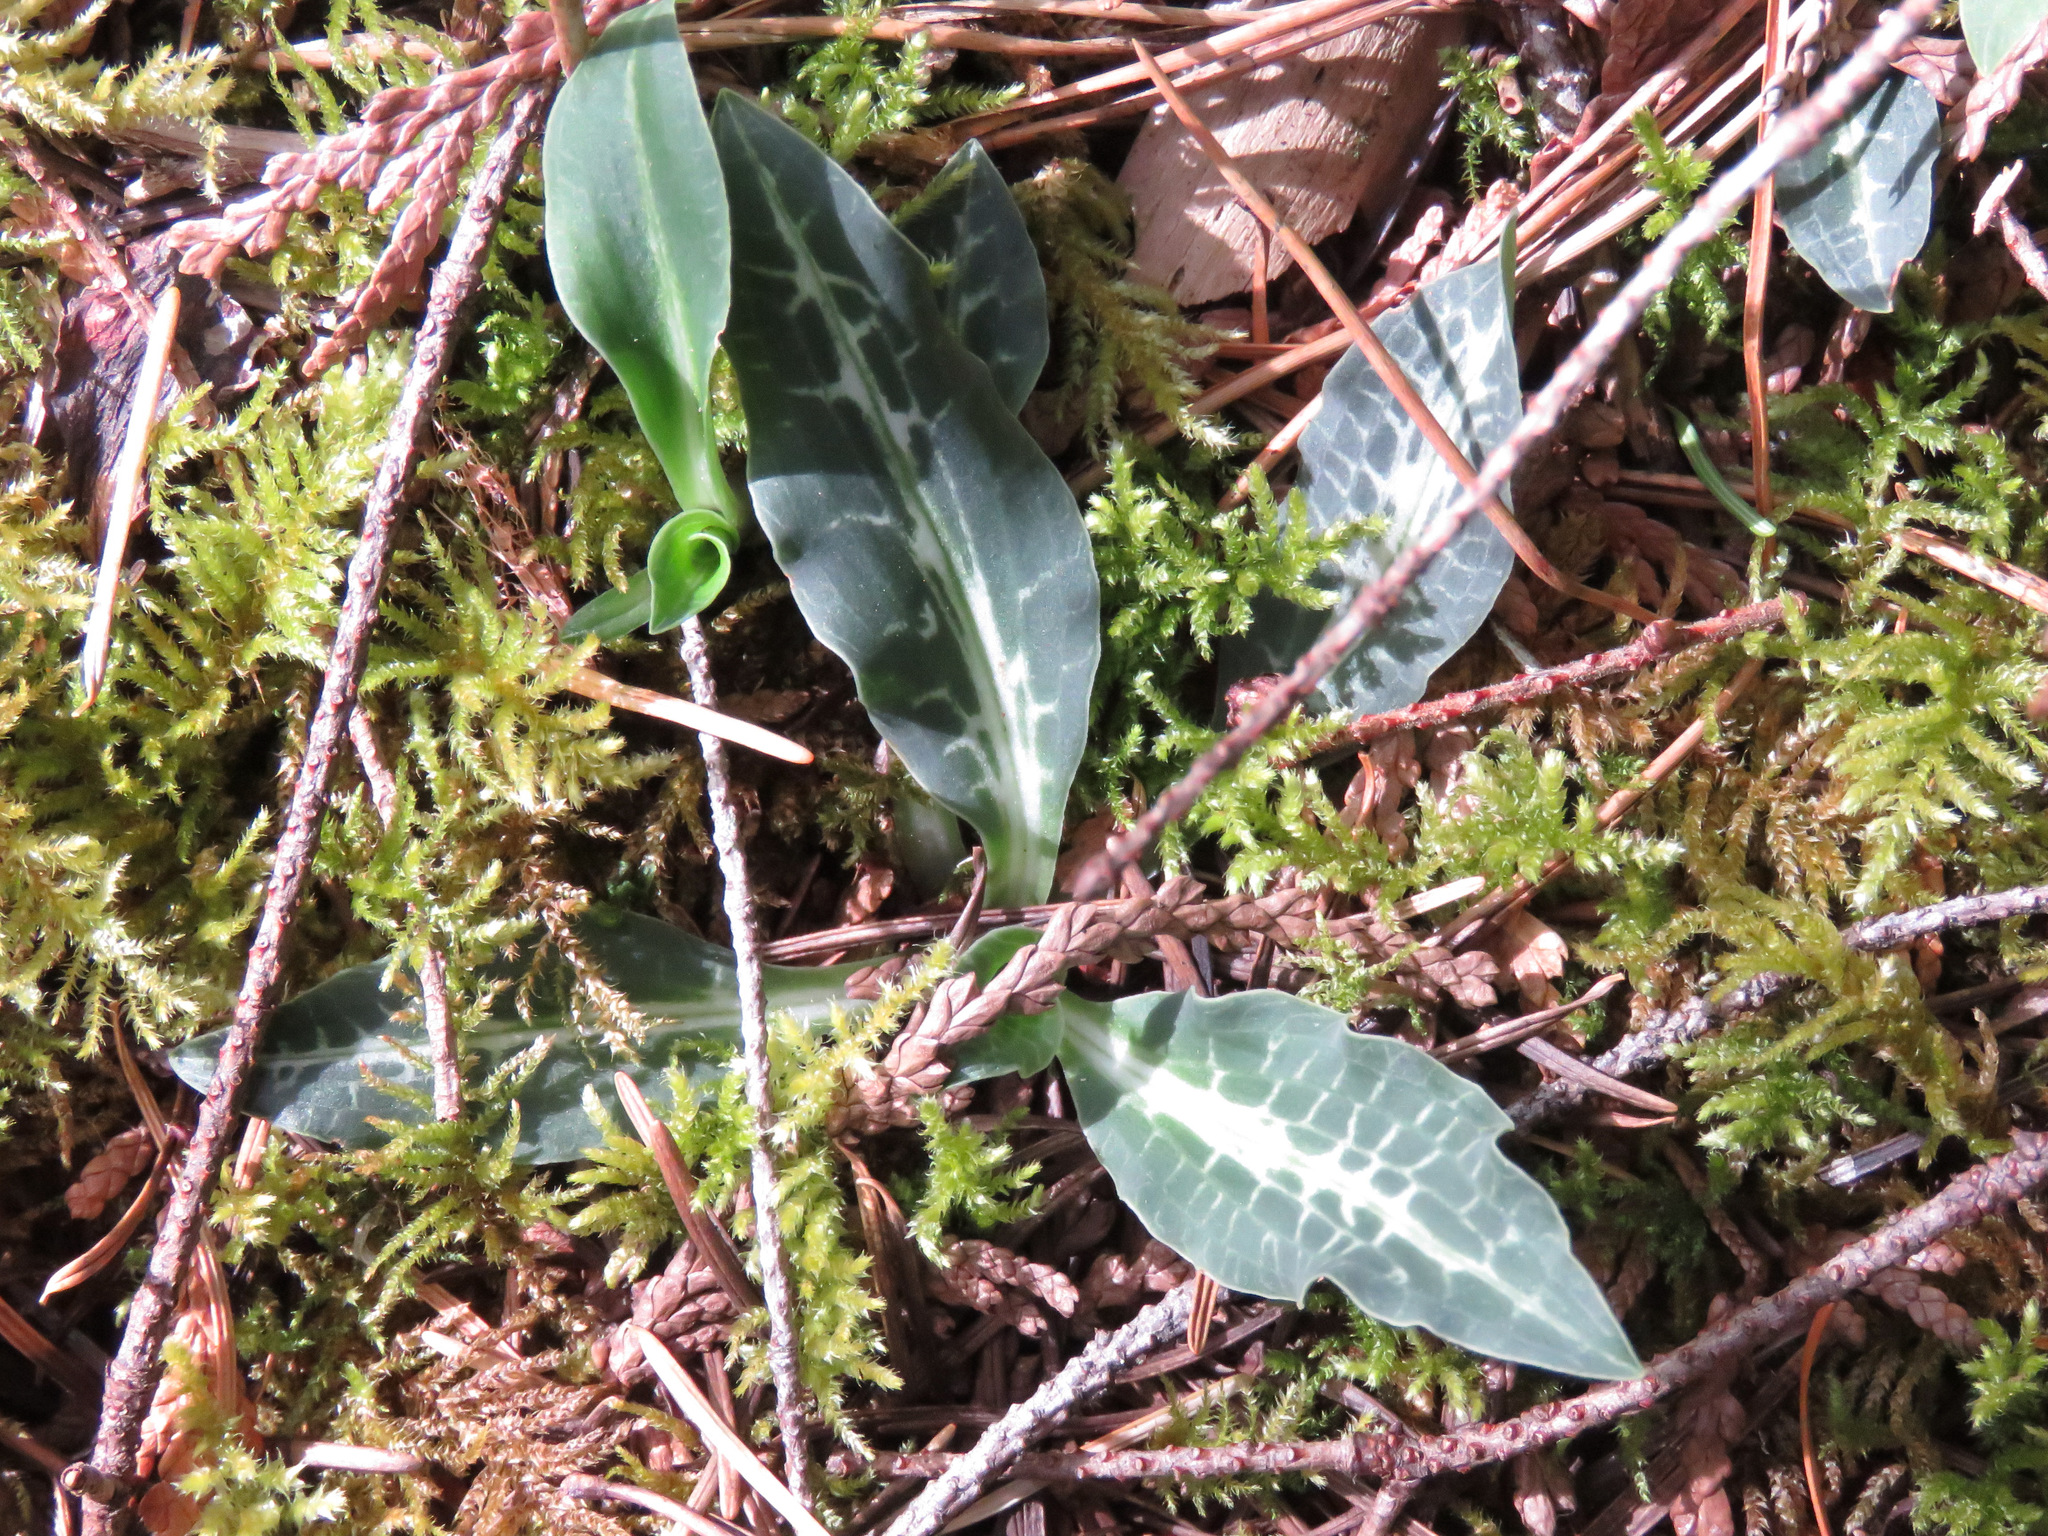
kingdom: Plantae
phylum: Tracheophyta
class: Liliopsida
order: Asparagales
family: Orchidaceae
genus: Goodyera
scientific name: Goodyera oblongifolia
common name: Giant rattlesnake-plantain
